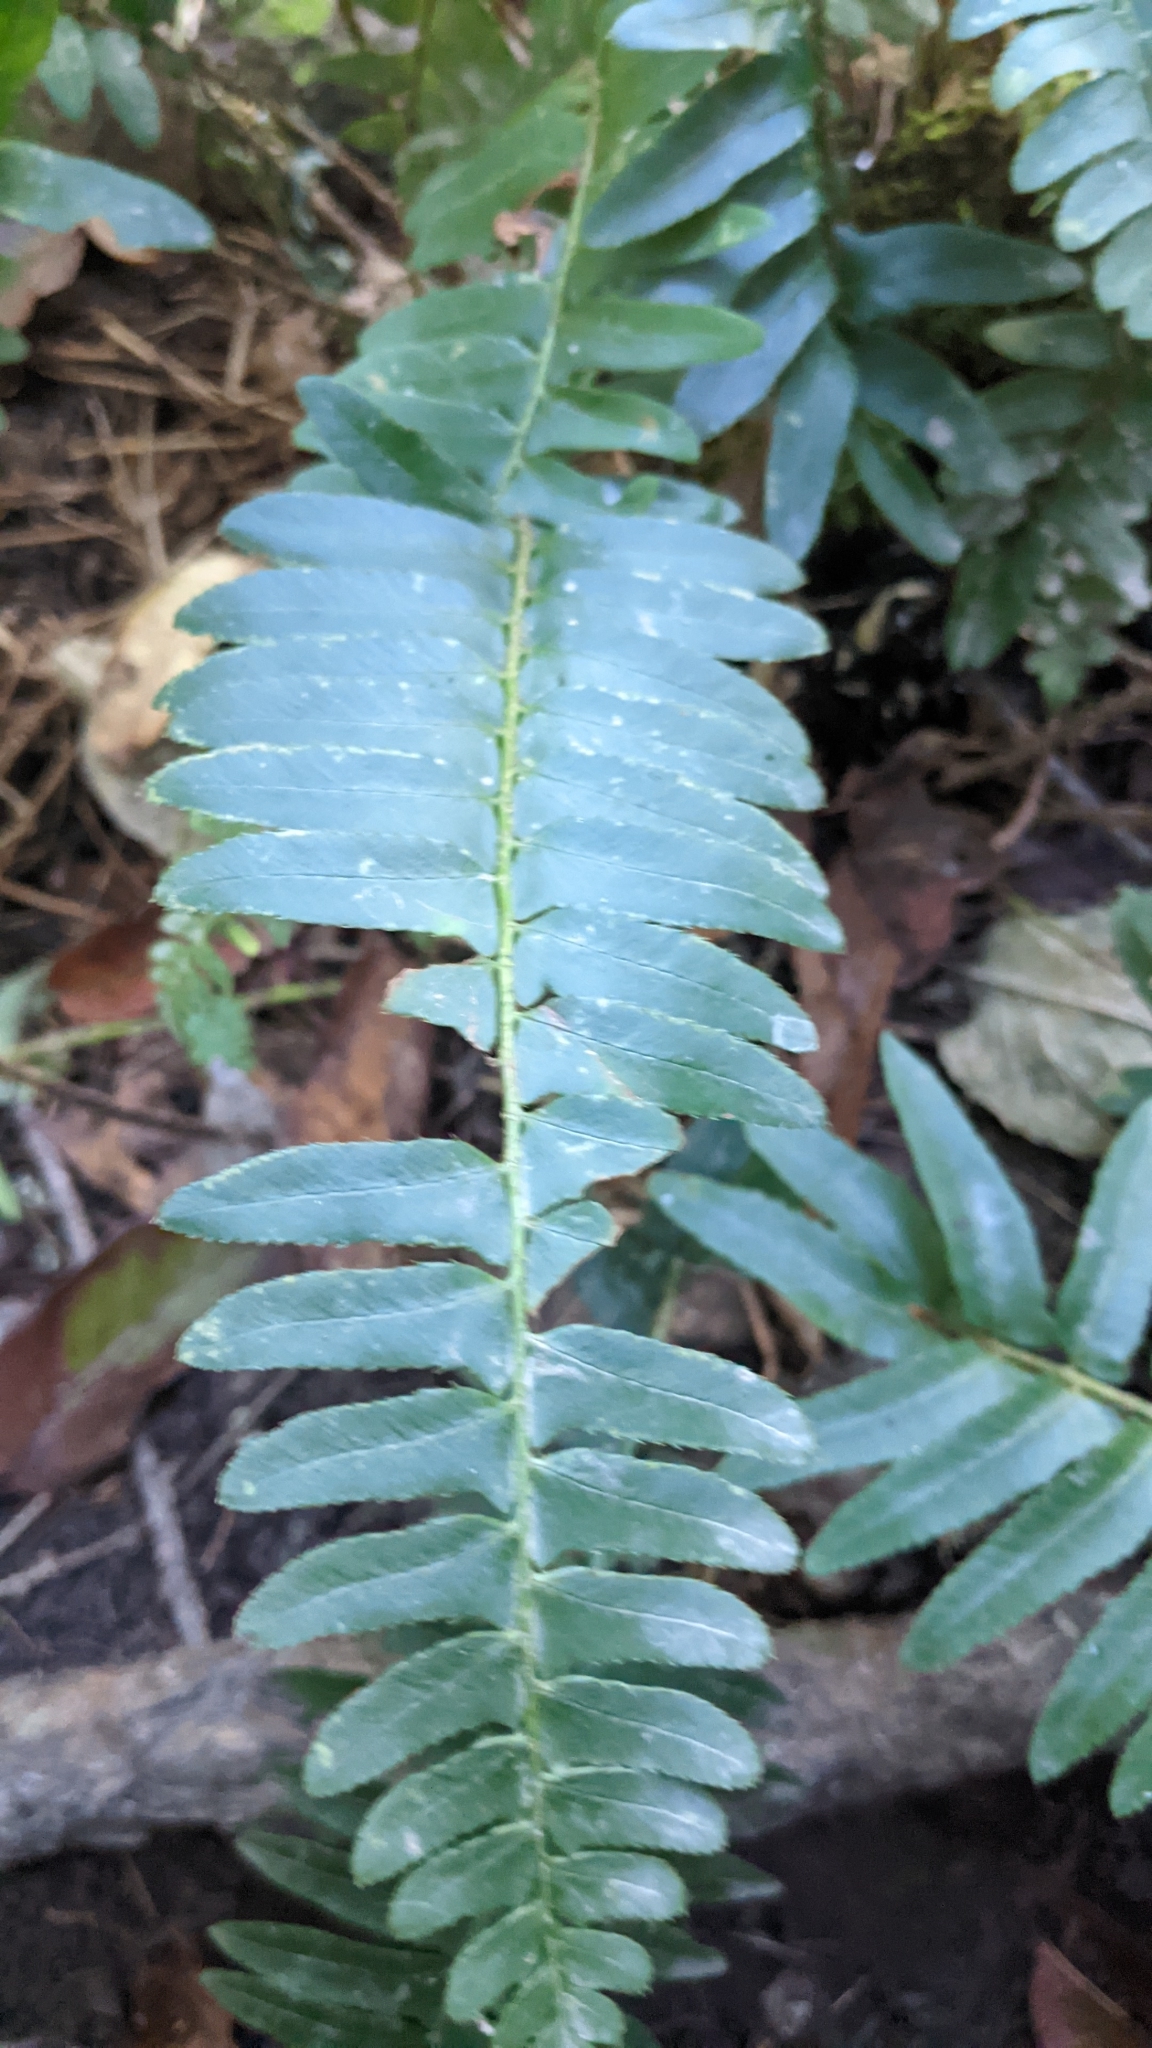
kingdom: Plantae
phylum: Tracheophyta
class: Polypodiopsida
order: Polypodiales
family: Dryopteridaceae
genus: Polystichum
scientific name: Polystichum acrostichoides
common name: Christmas fern
